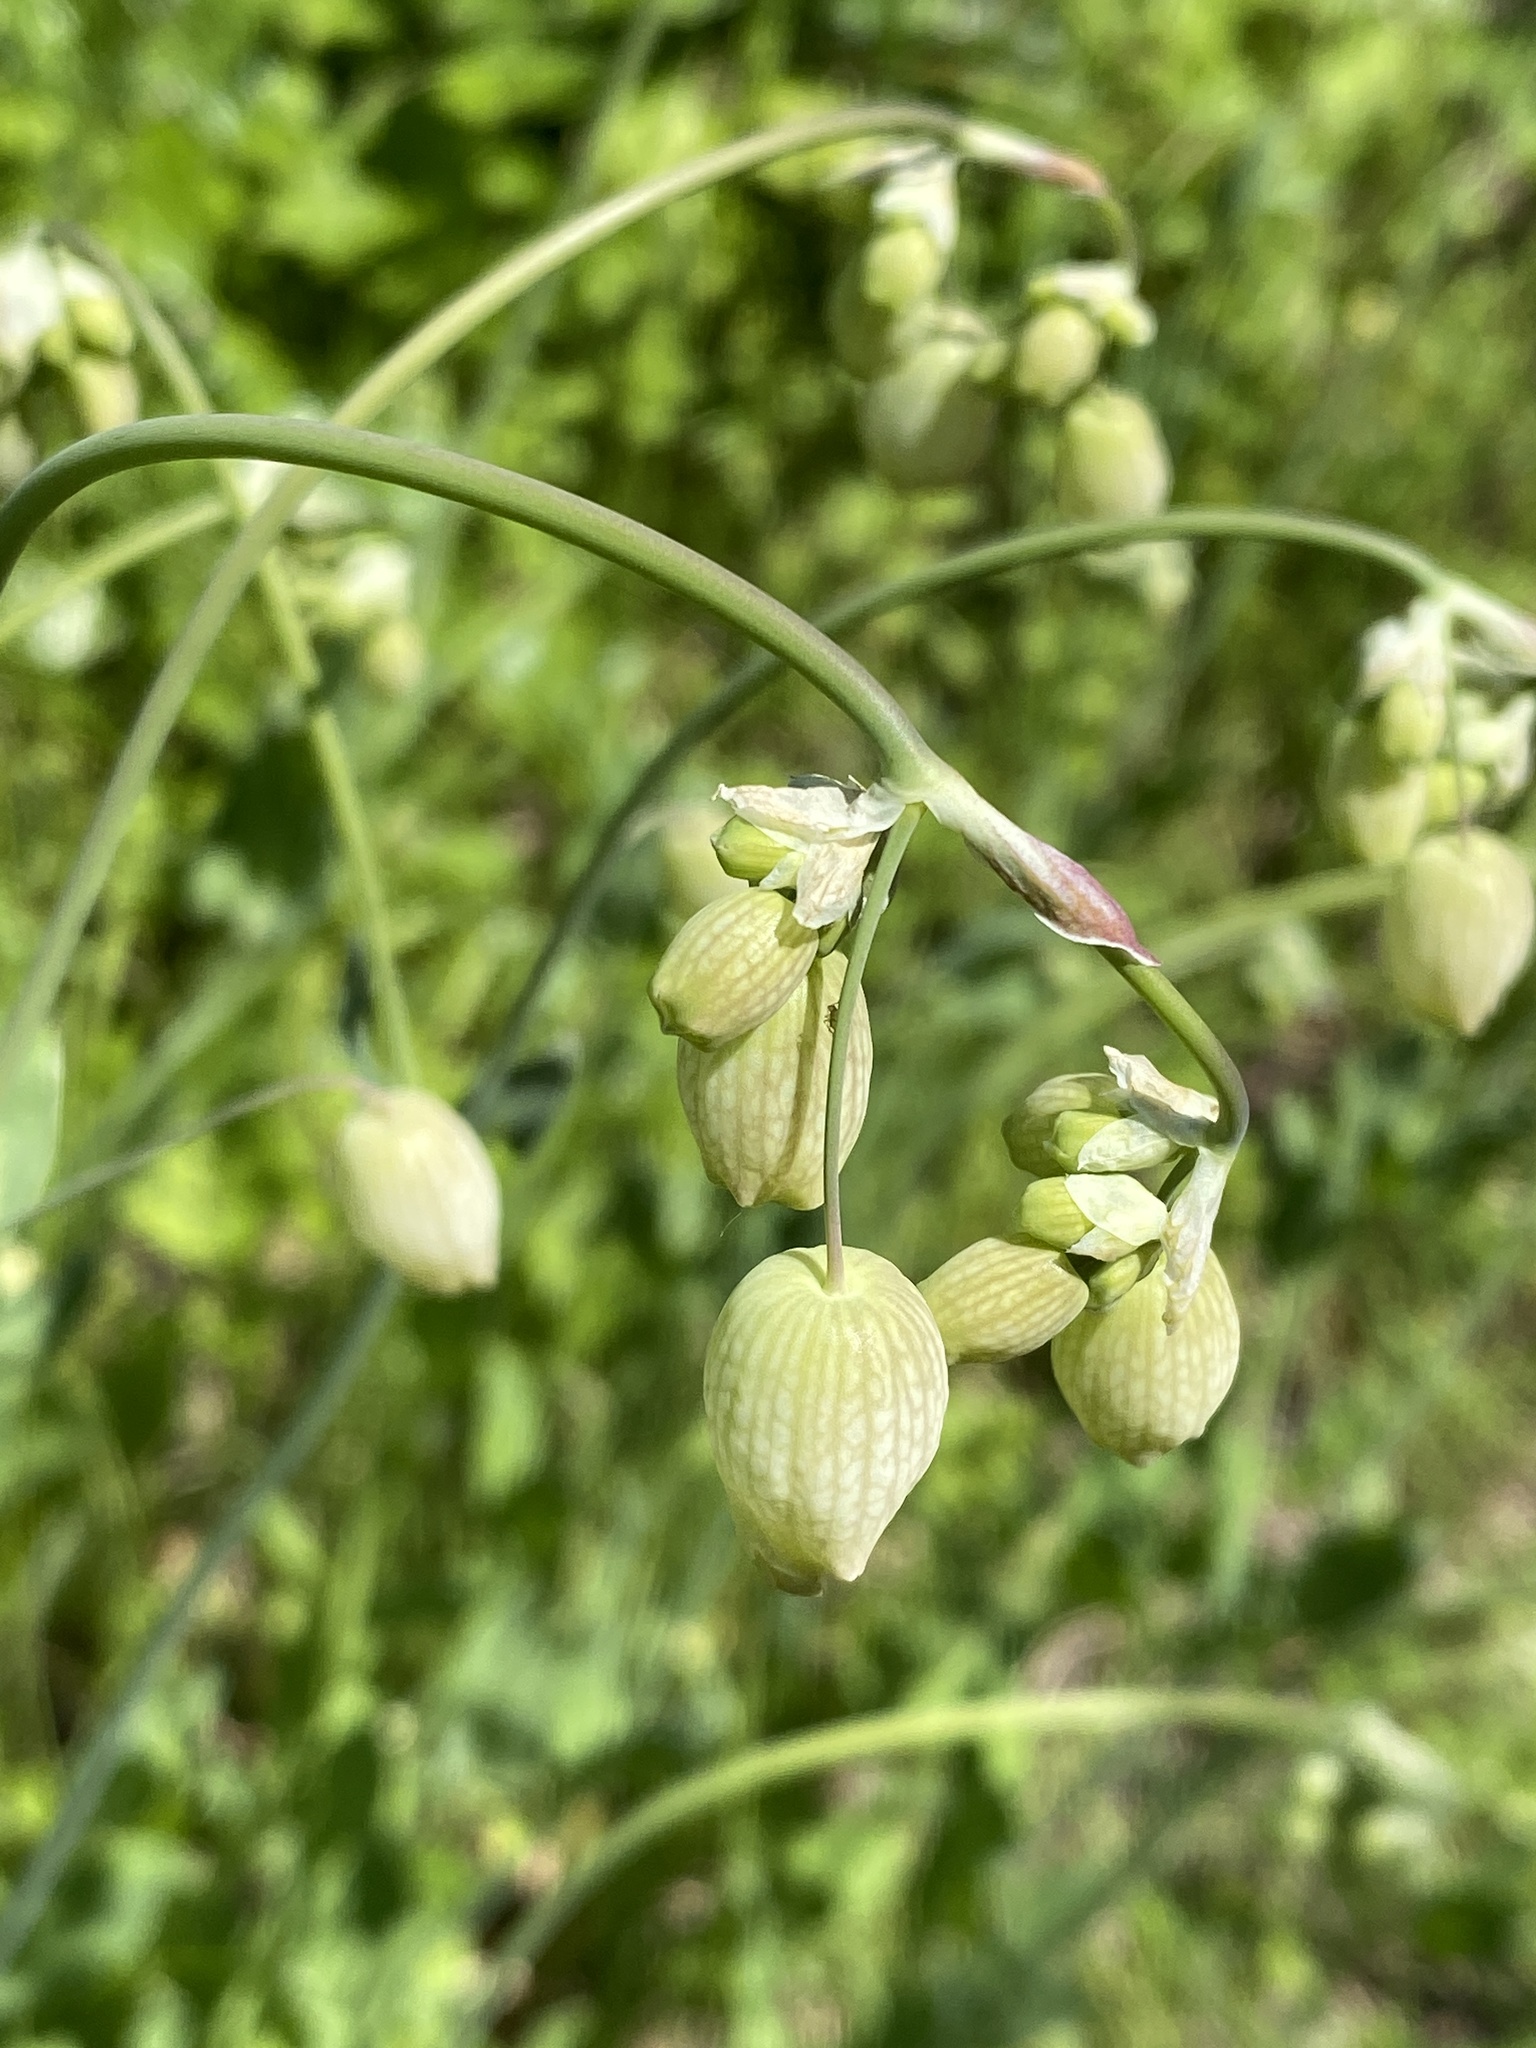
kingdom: Plantae
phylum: Tracheophyta
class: Magnoliopsida
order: Caryophyllales
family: Caryophyllaceae
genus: Silene
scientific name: Silene vulgaris
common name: Bladder campion
